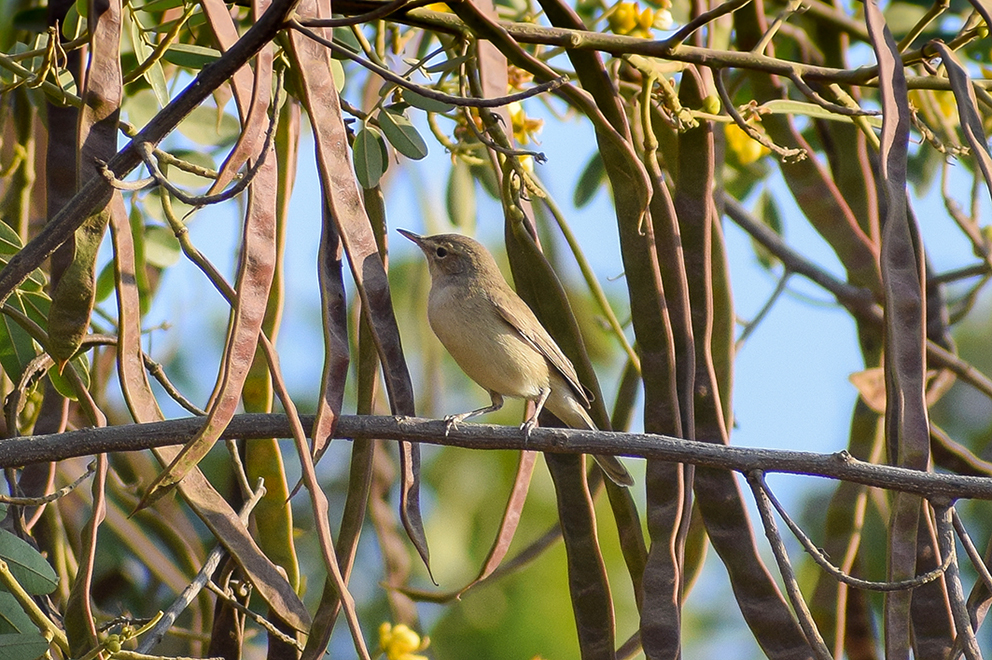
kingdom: Animalia
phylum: Chordata
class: Aves
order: Passeriformes
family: Acrocephalidae
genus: Iduna
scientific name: Iduna rama
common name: Sykes's warbler
